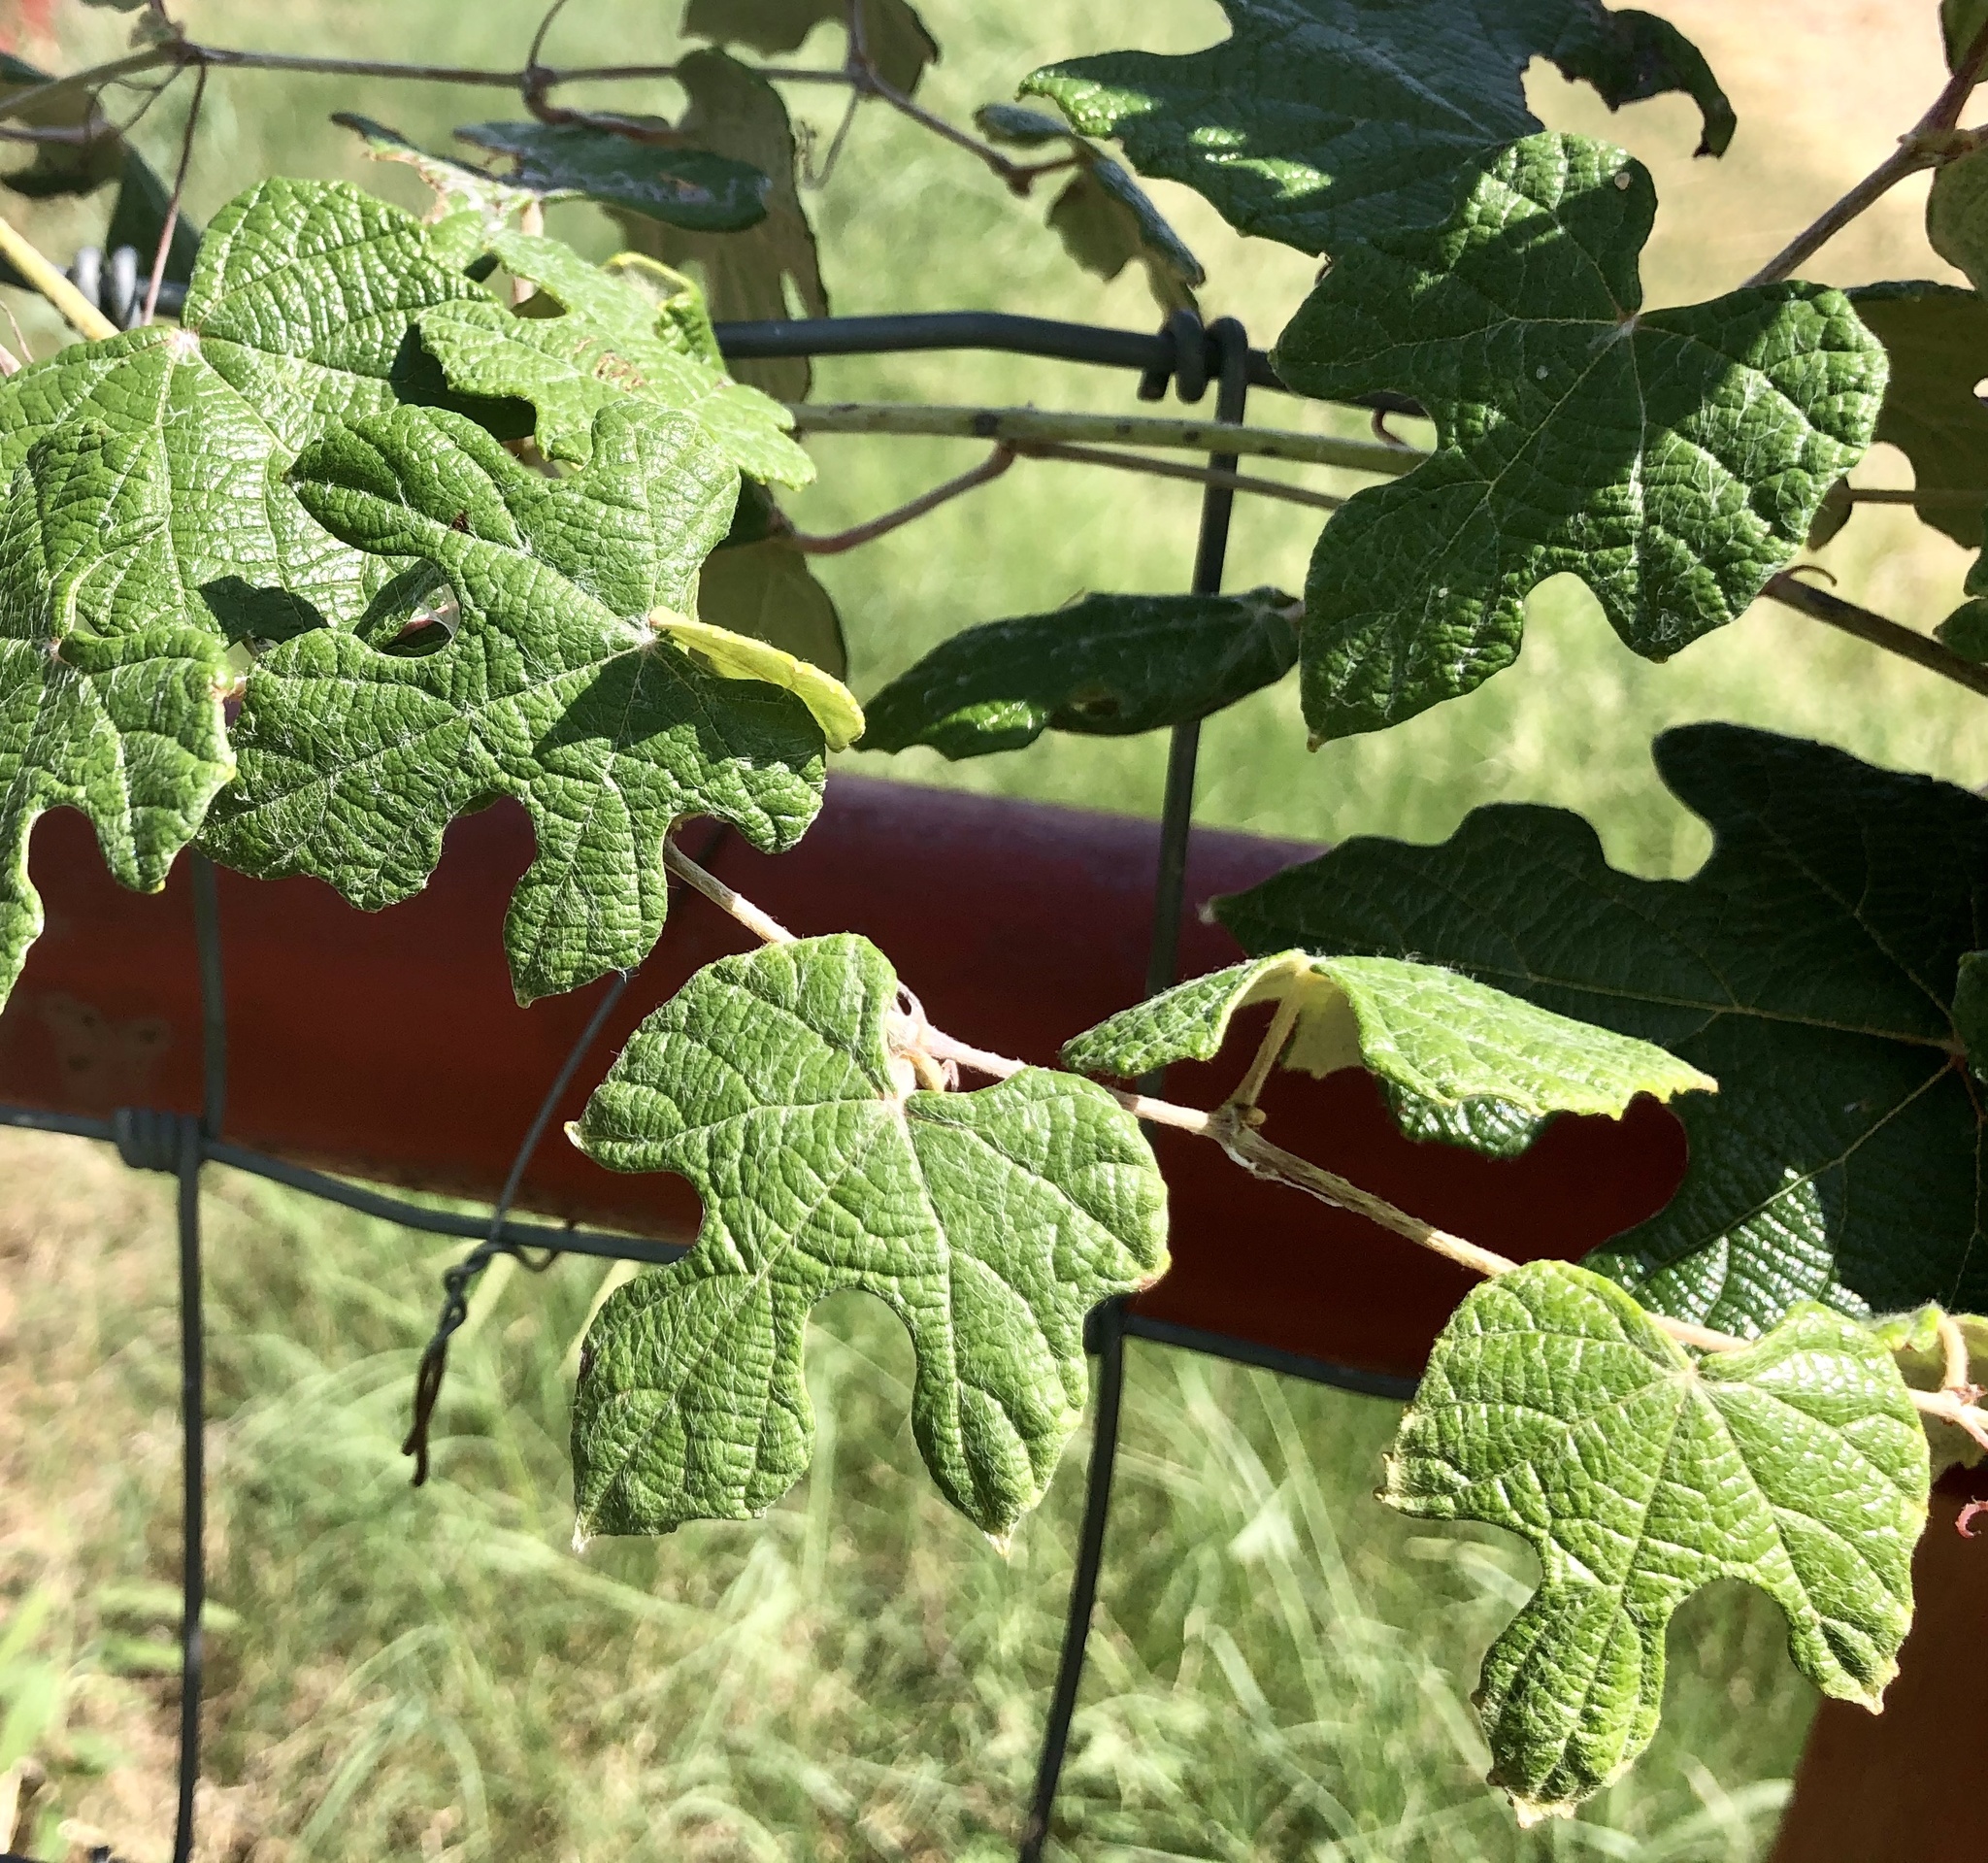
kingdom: Plantae
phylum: Tracheophyta
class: Magnoliopsida
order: Vitales
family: Vitaceae
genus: Vitis
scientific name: Vitis mustangensis
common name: Mustang grape
